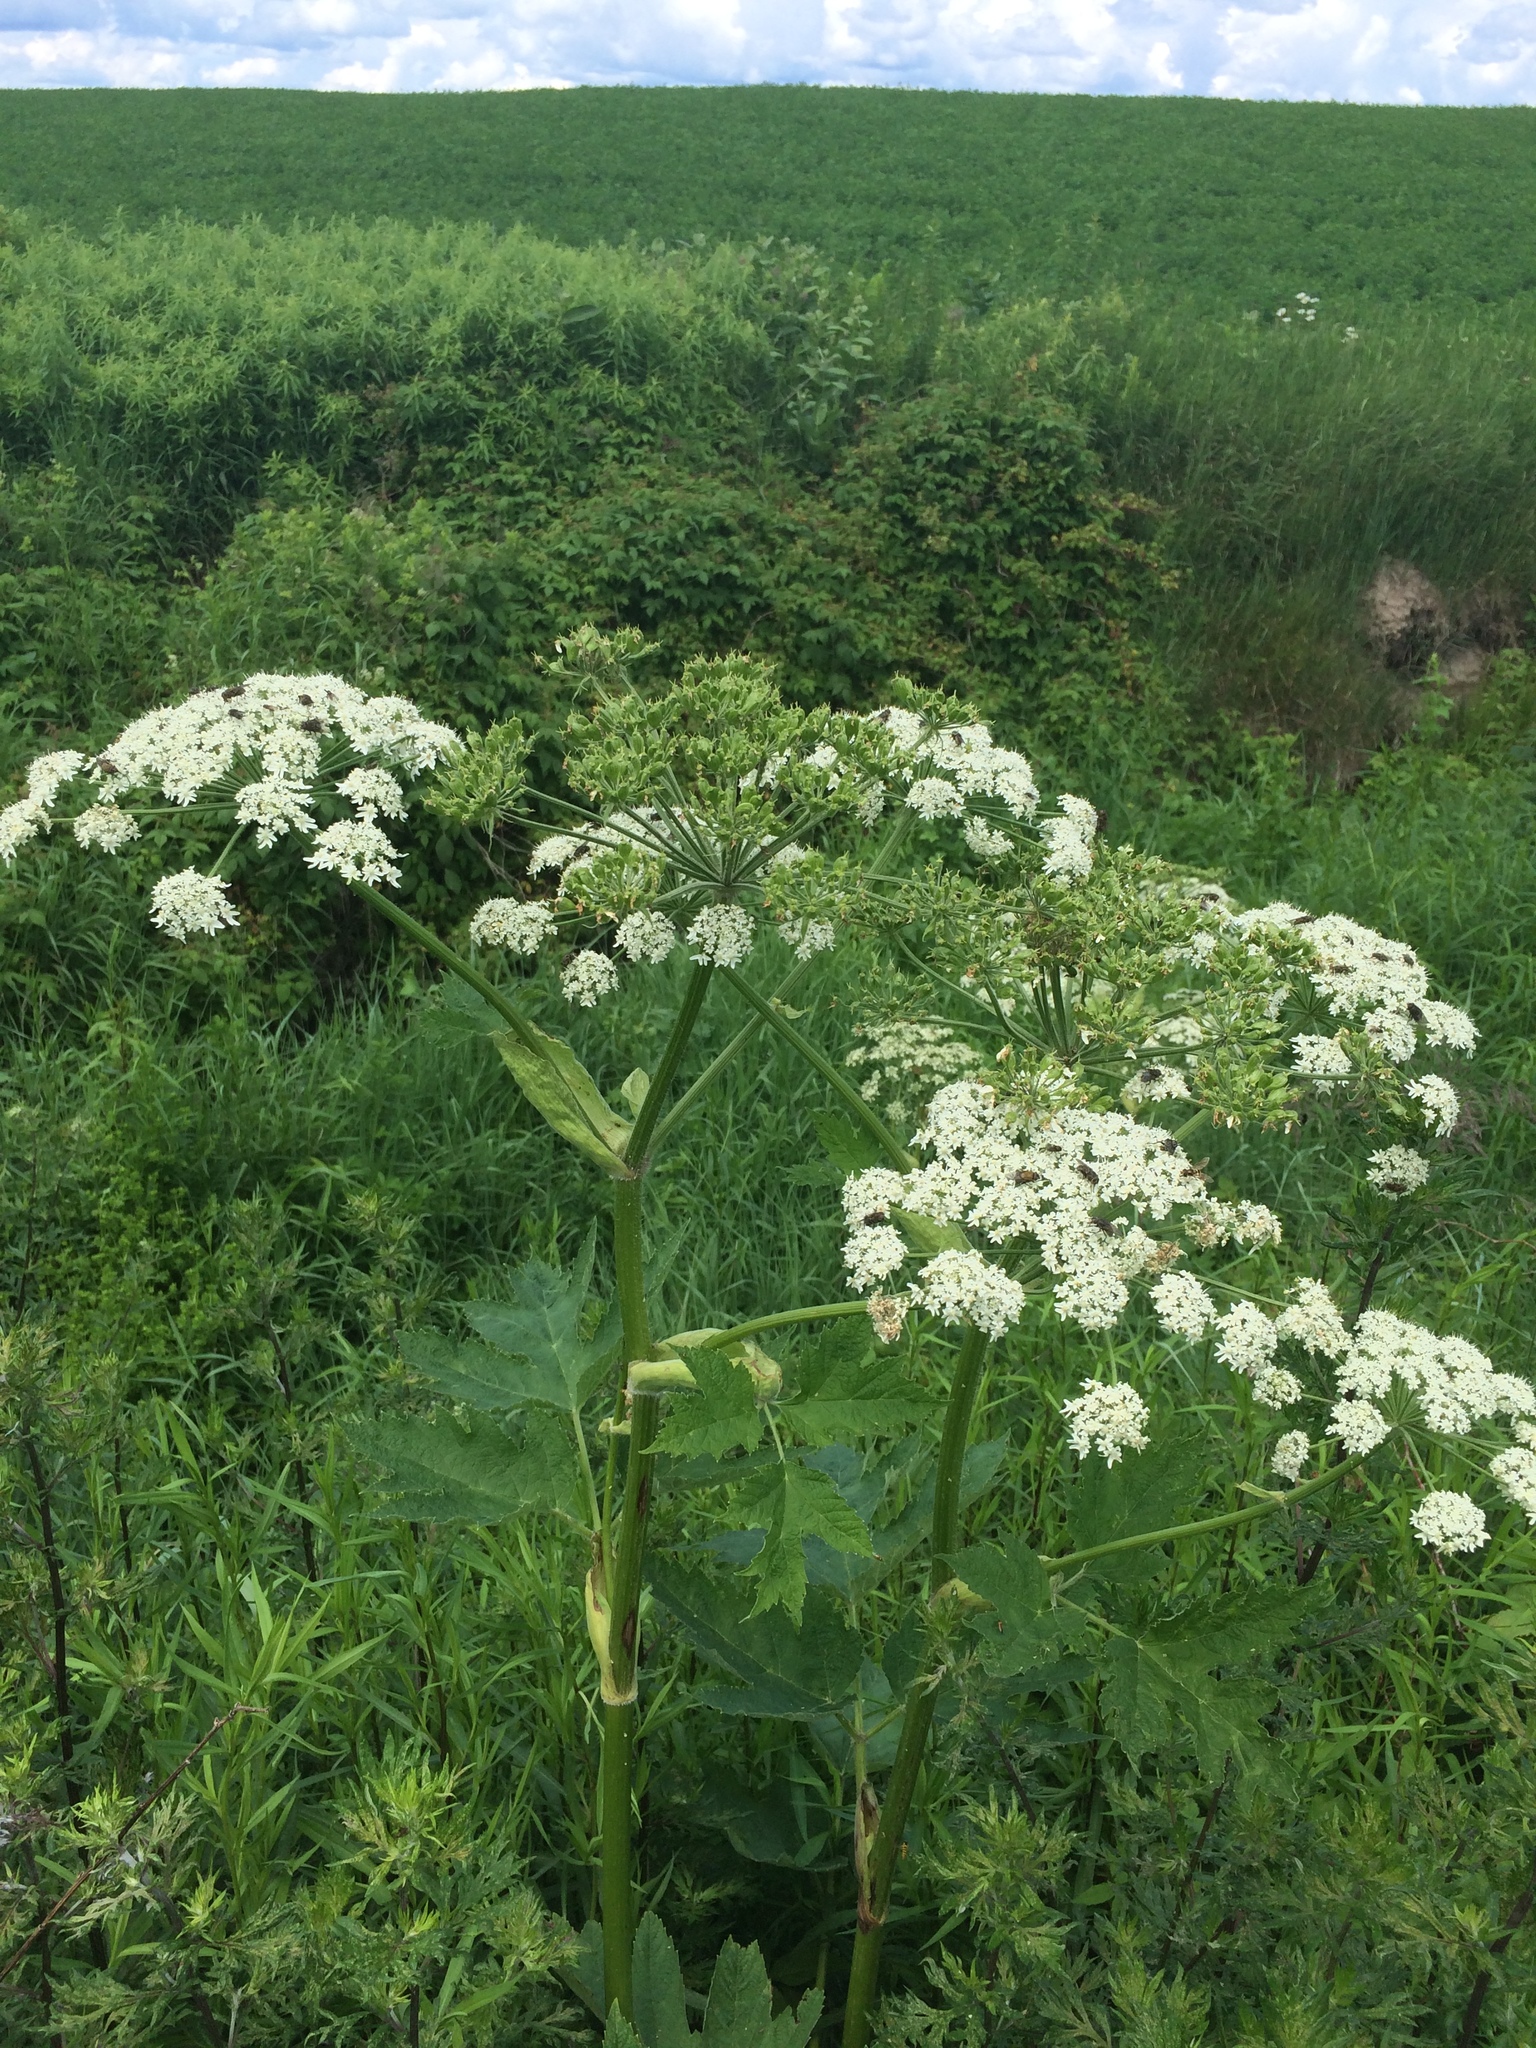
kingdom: Plantae
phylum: Tracheophyta
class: Magnoliopsida
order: Apiales
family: Apiaceae
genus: Heracleum
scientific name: Heracleum maximum
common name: American cow parsnip
